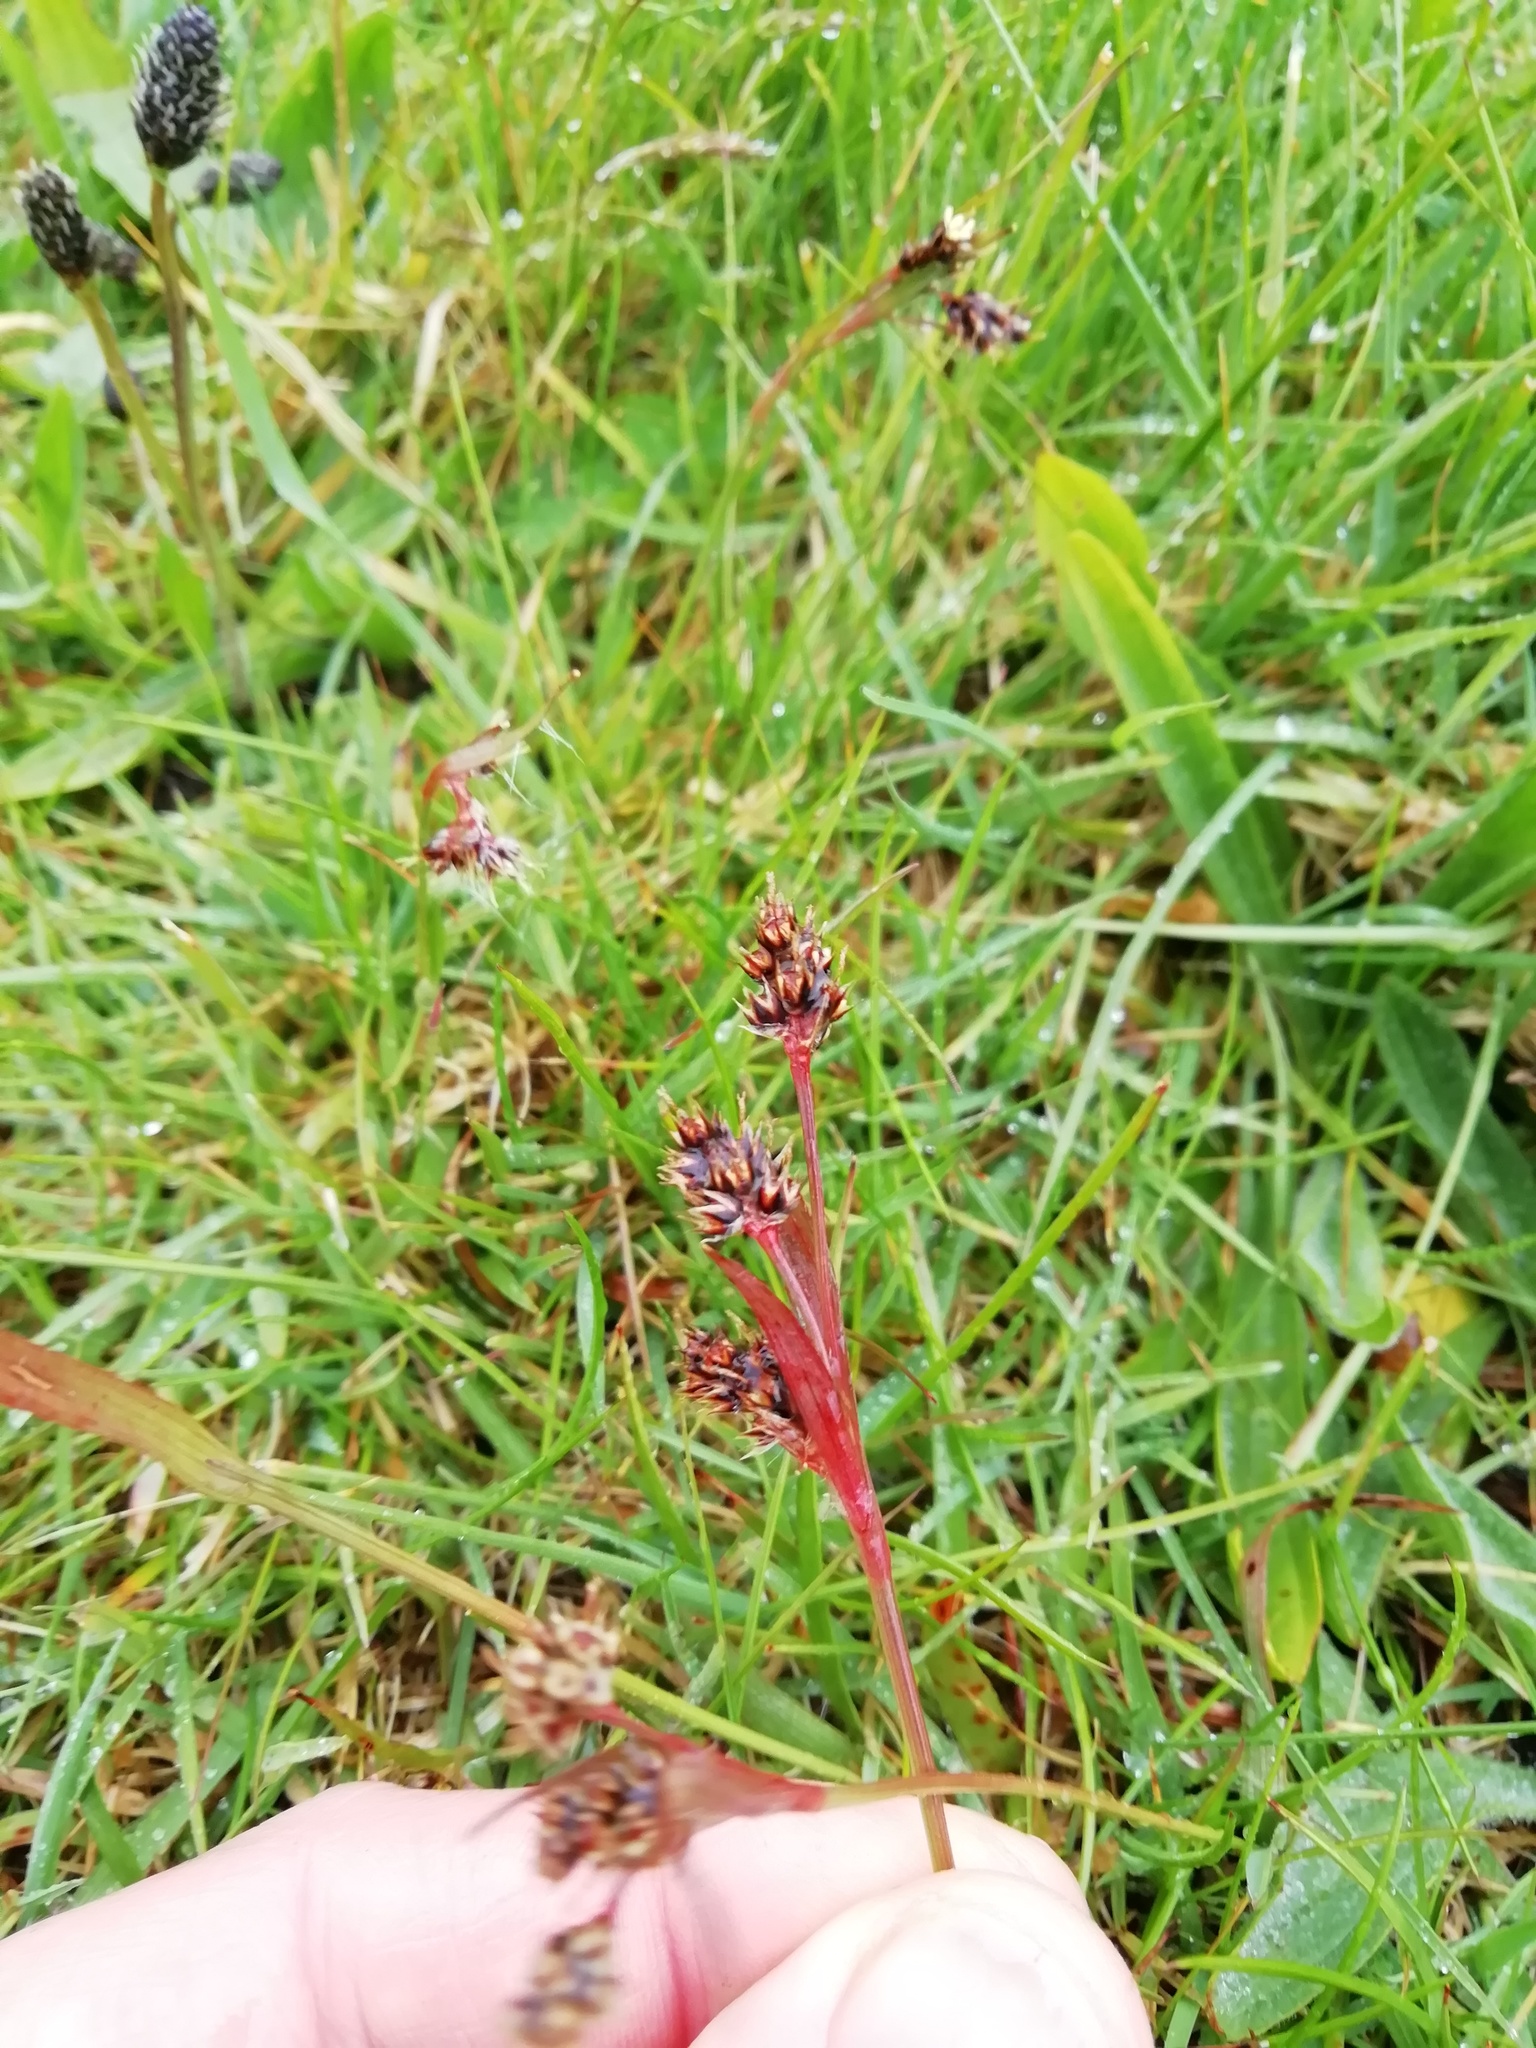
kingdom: Plantae
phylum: Tracheophyta
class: Liliopsida
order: Poales
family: Juncaceae
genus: Luzula
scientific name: Luzula campestris
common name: Field wood-rush
